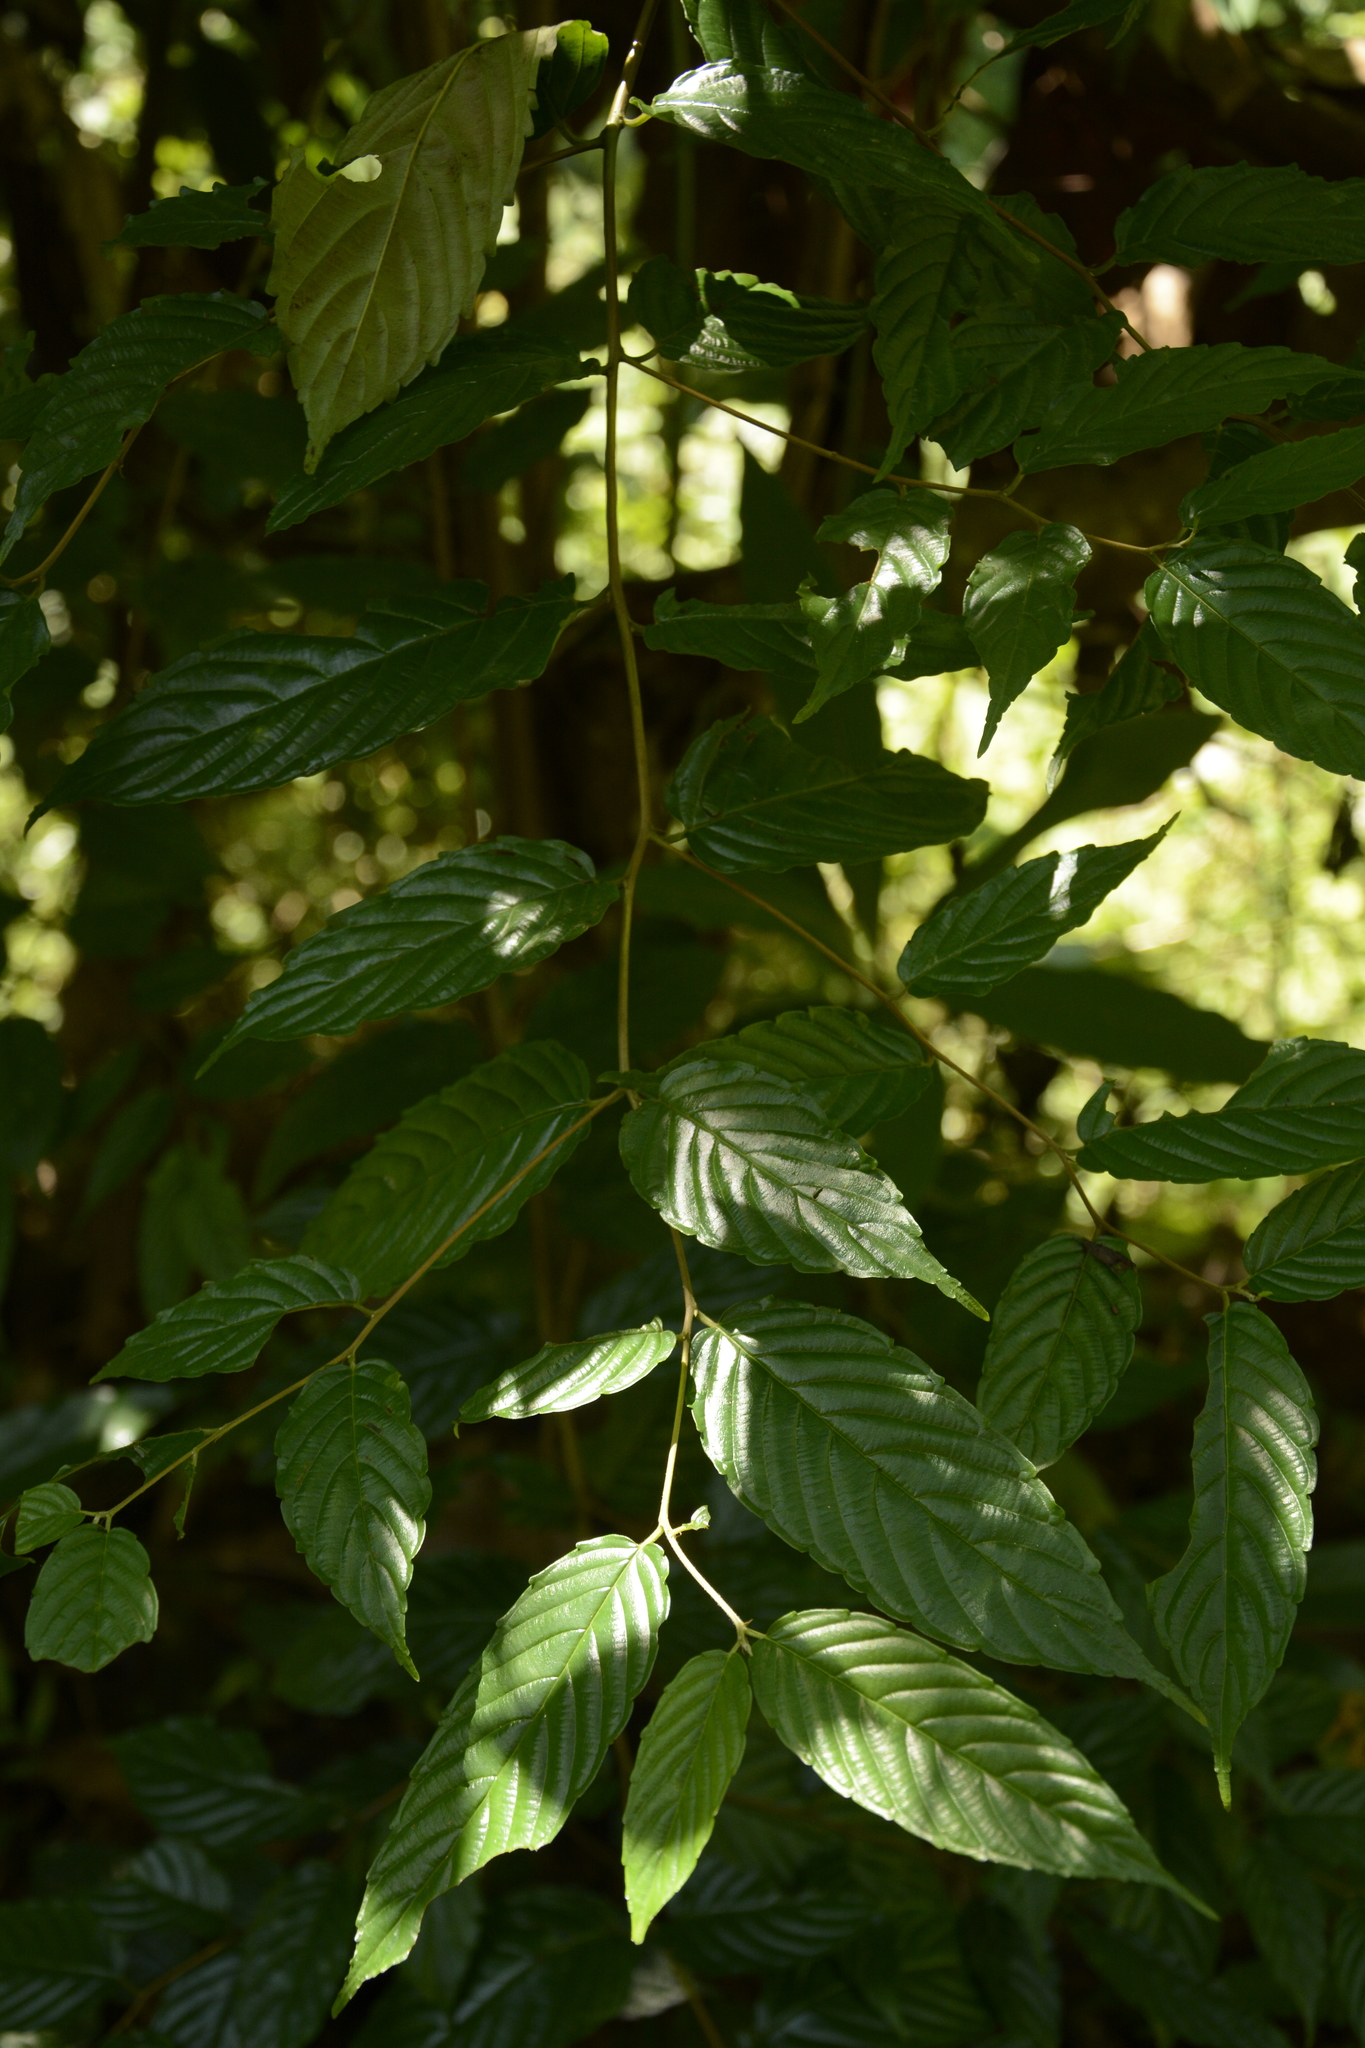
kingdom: Plantae
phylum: Tracheophyta
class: Magnoliopsida
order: Rosales
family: Rhamnaceae
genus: Maesopsis
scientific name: Maesopsis eminii
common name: Umbrella tree
